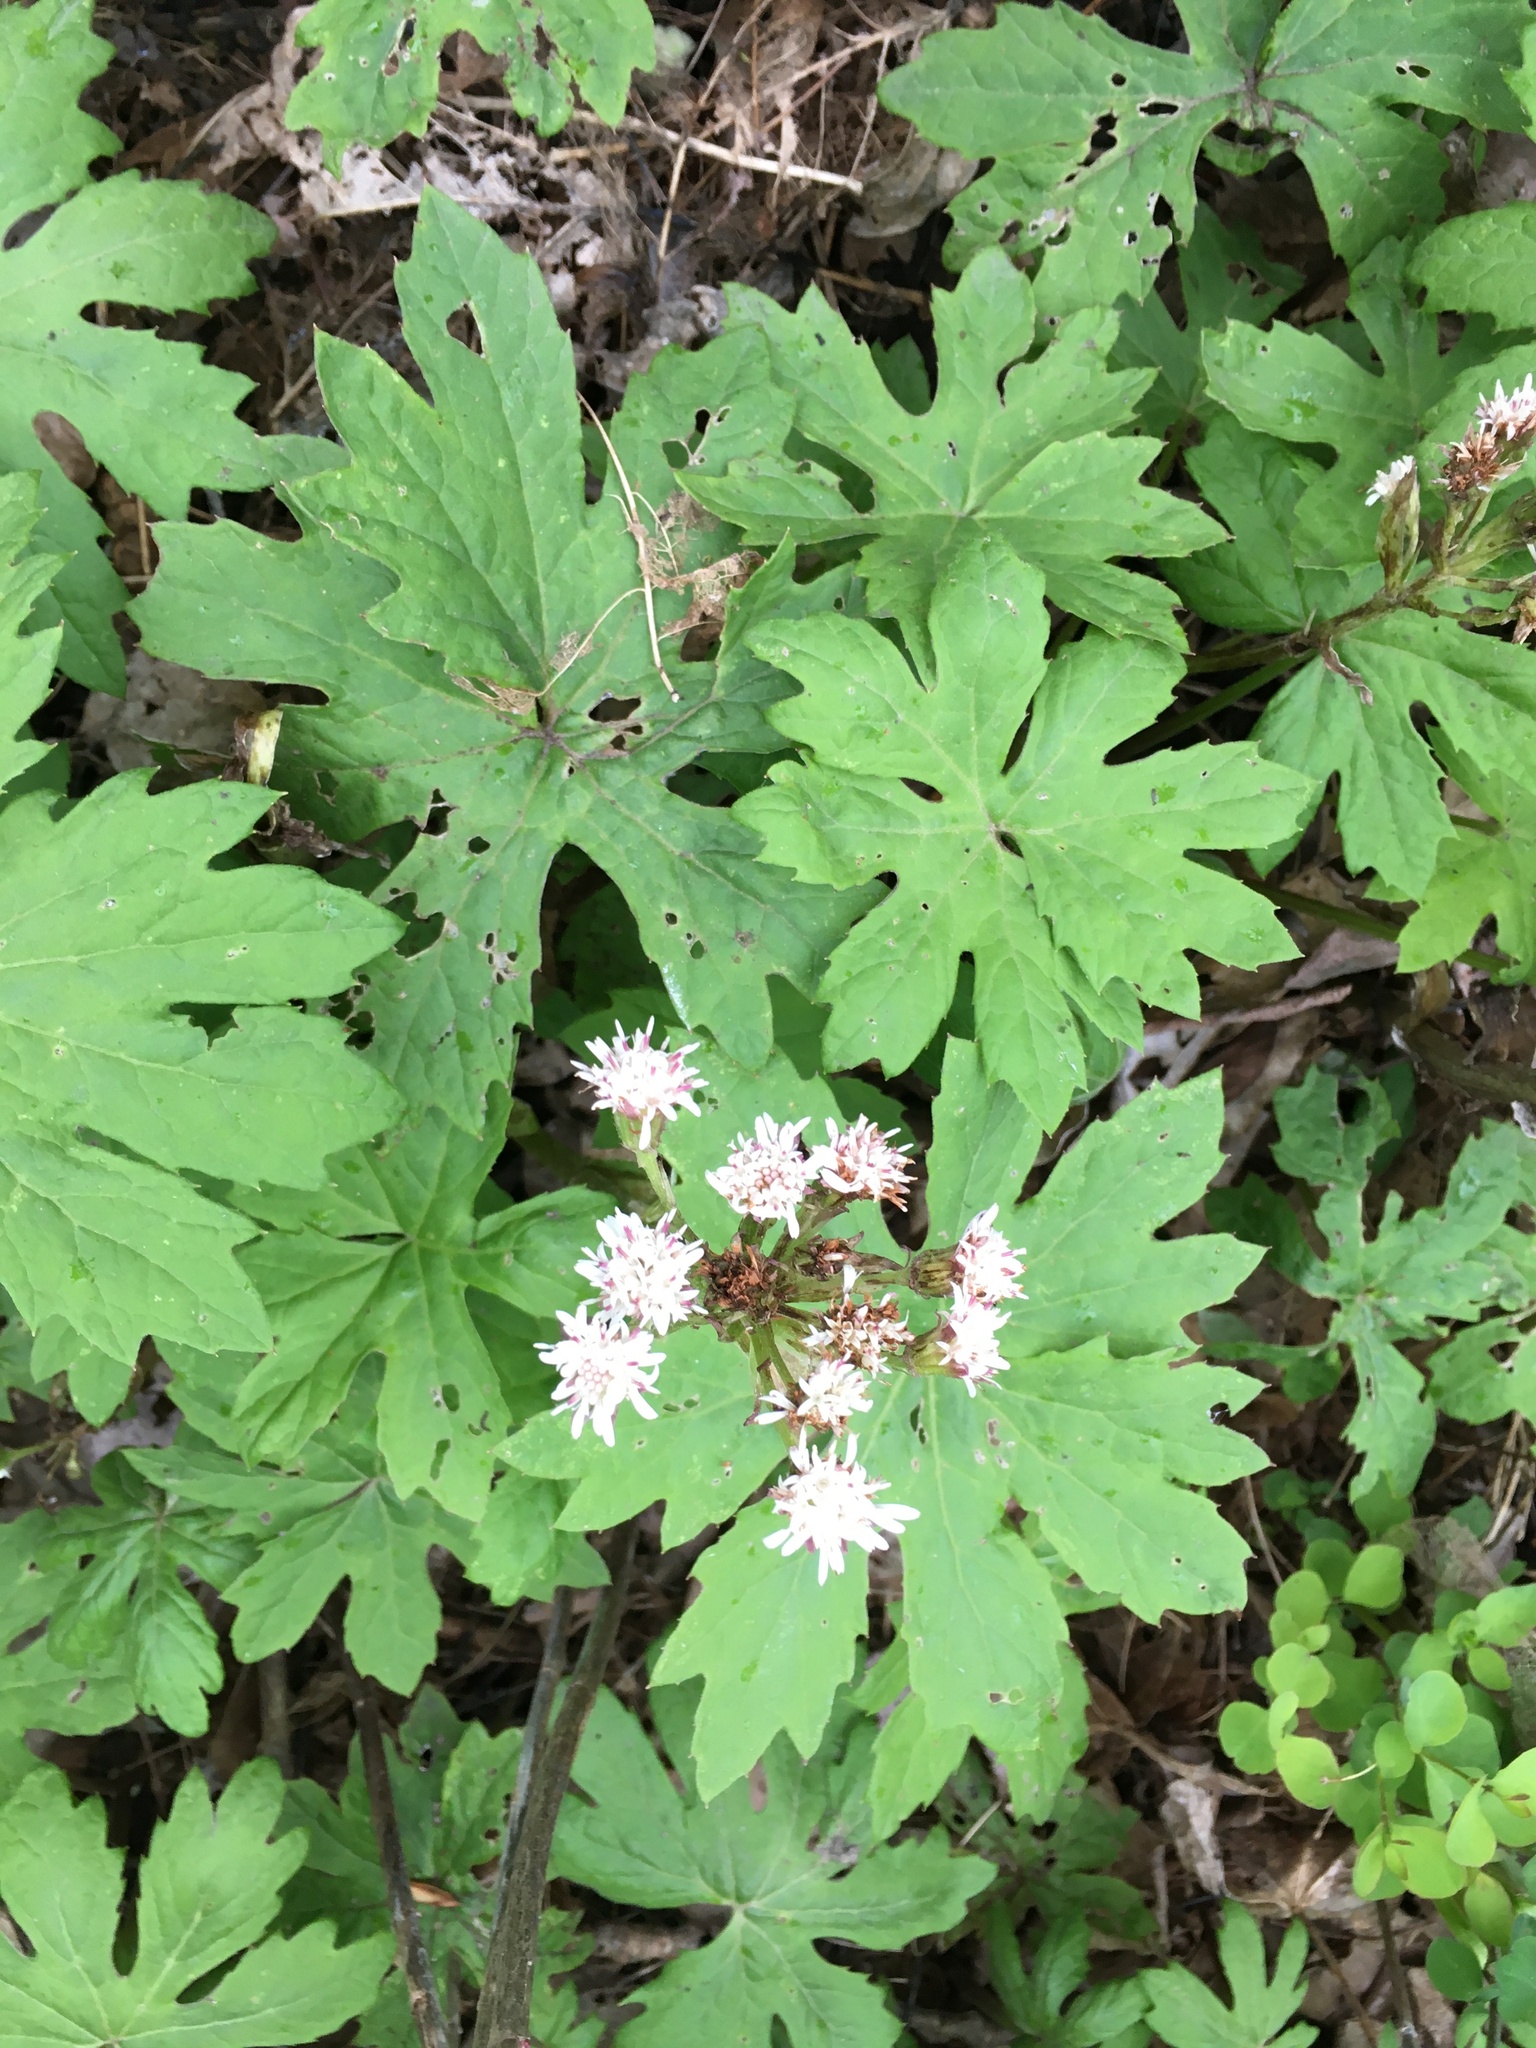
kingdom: Plantae
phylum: Tracheophyta
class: Magnoliopsida
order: Asterales
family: Asteraceae
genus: Petasites
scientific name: Petasites frigidus
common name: Arctic butterbur
